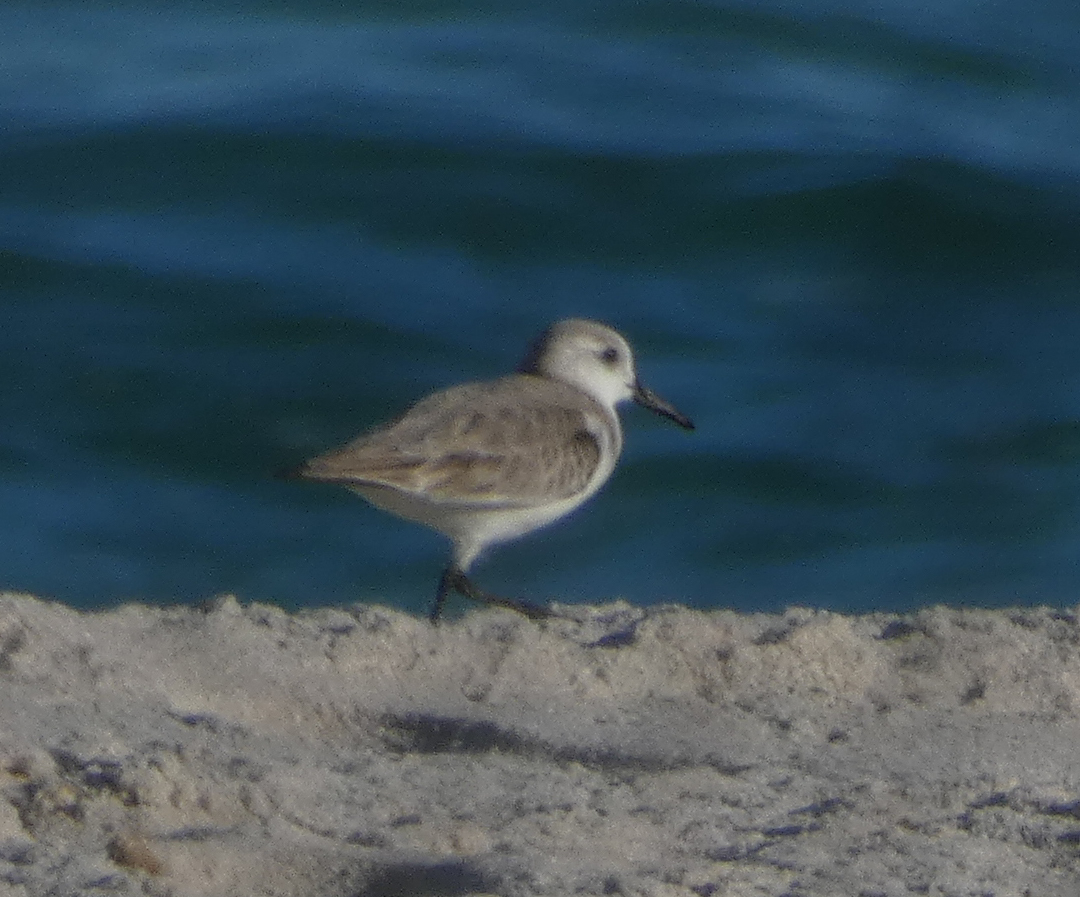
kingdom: Animalia
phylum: Chordata
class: Aves
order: Charadriiformes
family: Scolopacidae
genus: Calidris
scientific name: Calidris alba
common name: Sanderling
